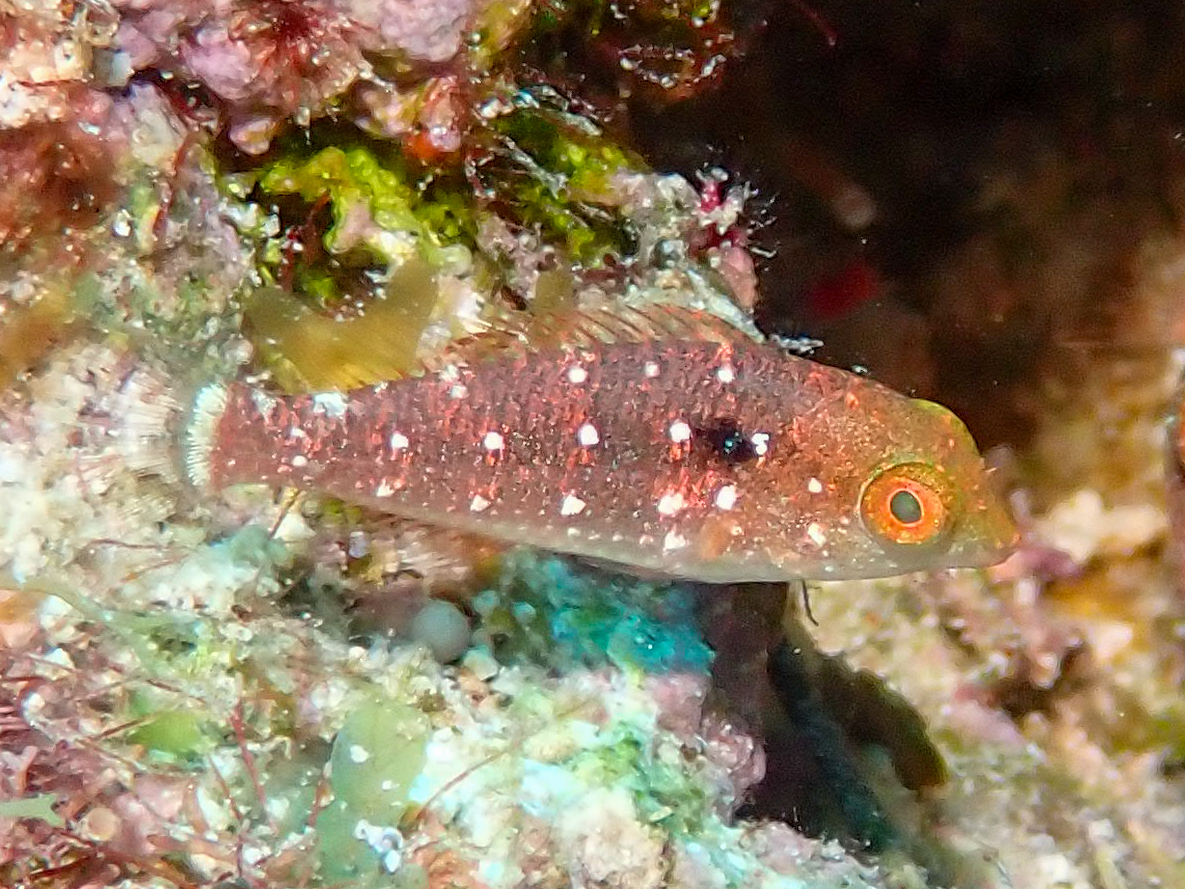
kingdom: Animalia
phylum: Chordata
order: Perciformes
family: Scaridae
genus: Sparisoma
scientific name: Sparisoma viride
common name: Stoplight parrotfish
